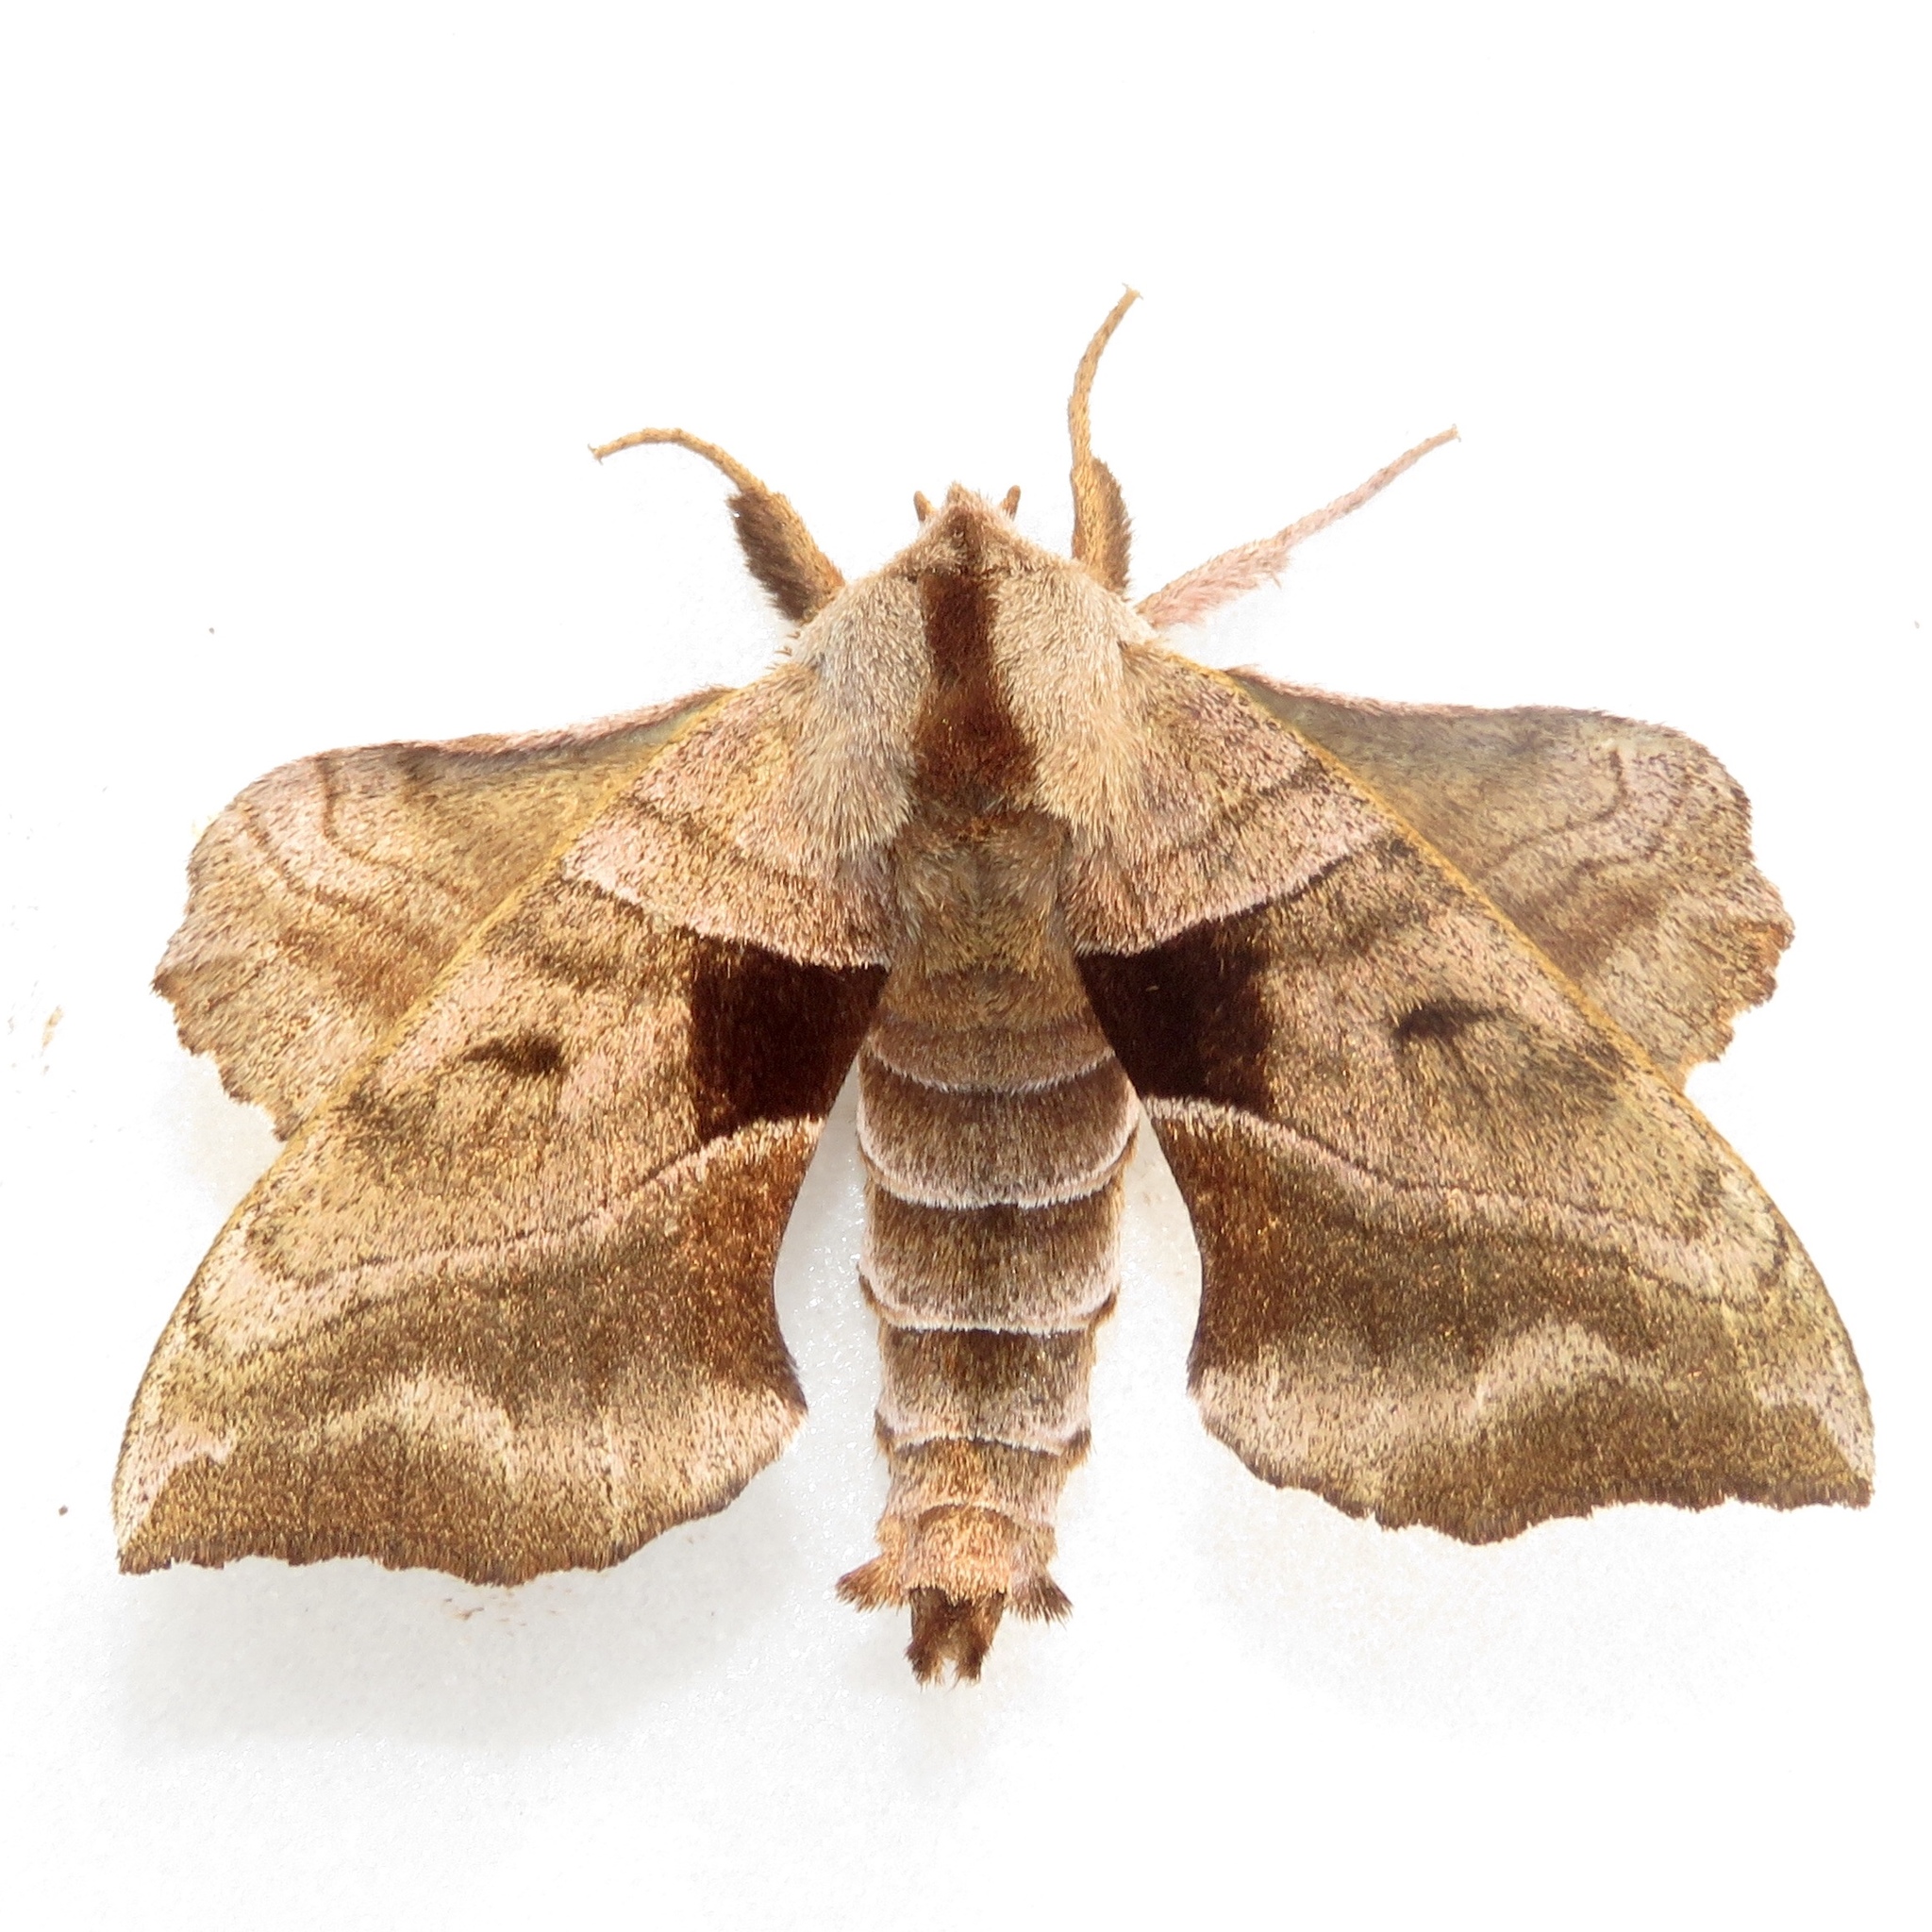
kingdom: Animalia
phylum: Arthropoda
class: Insecta
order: Lepidoptera
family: Sphingidae
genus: Amorpha
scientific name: Amorpha juglandis
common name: Walnut sphinx
